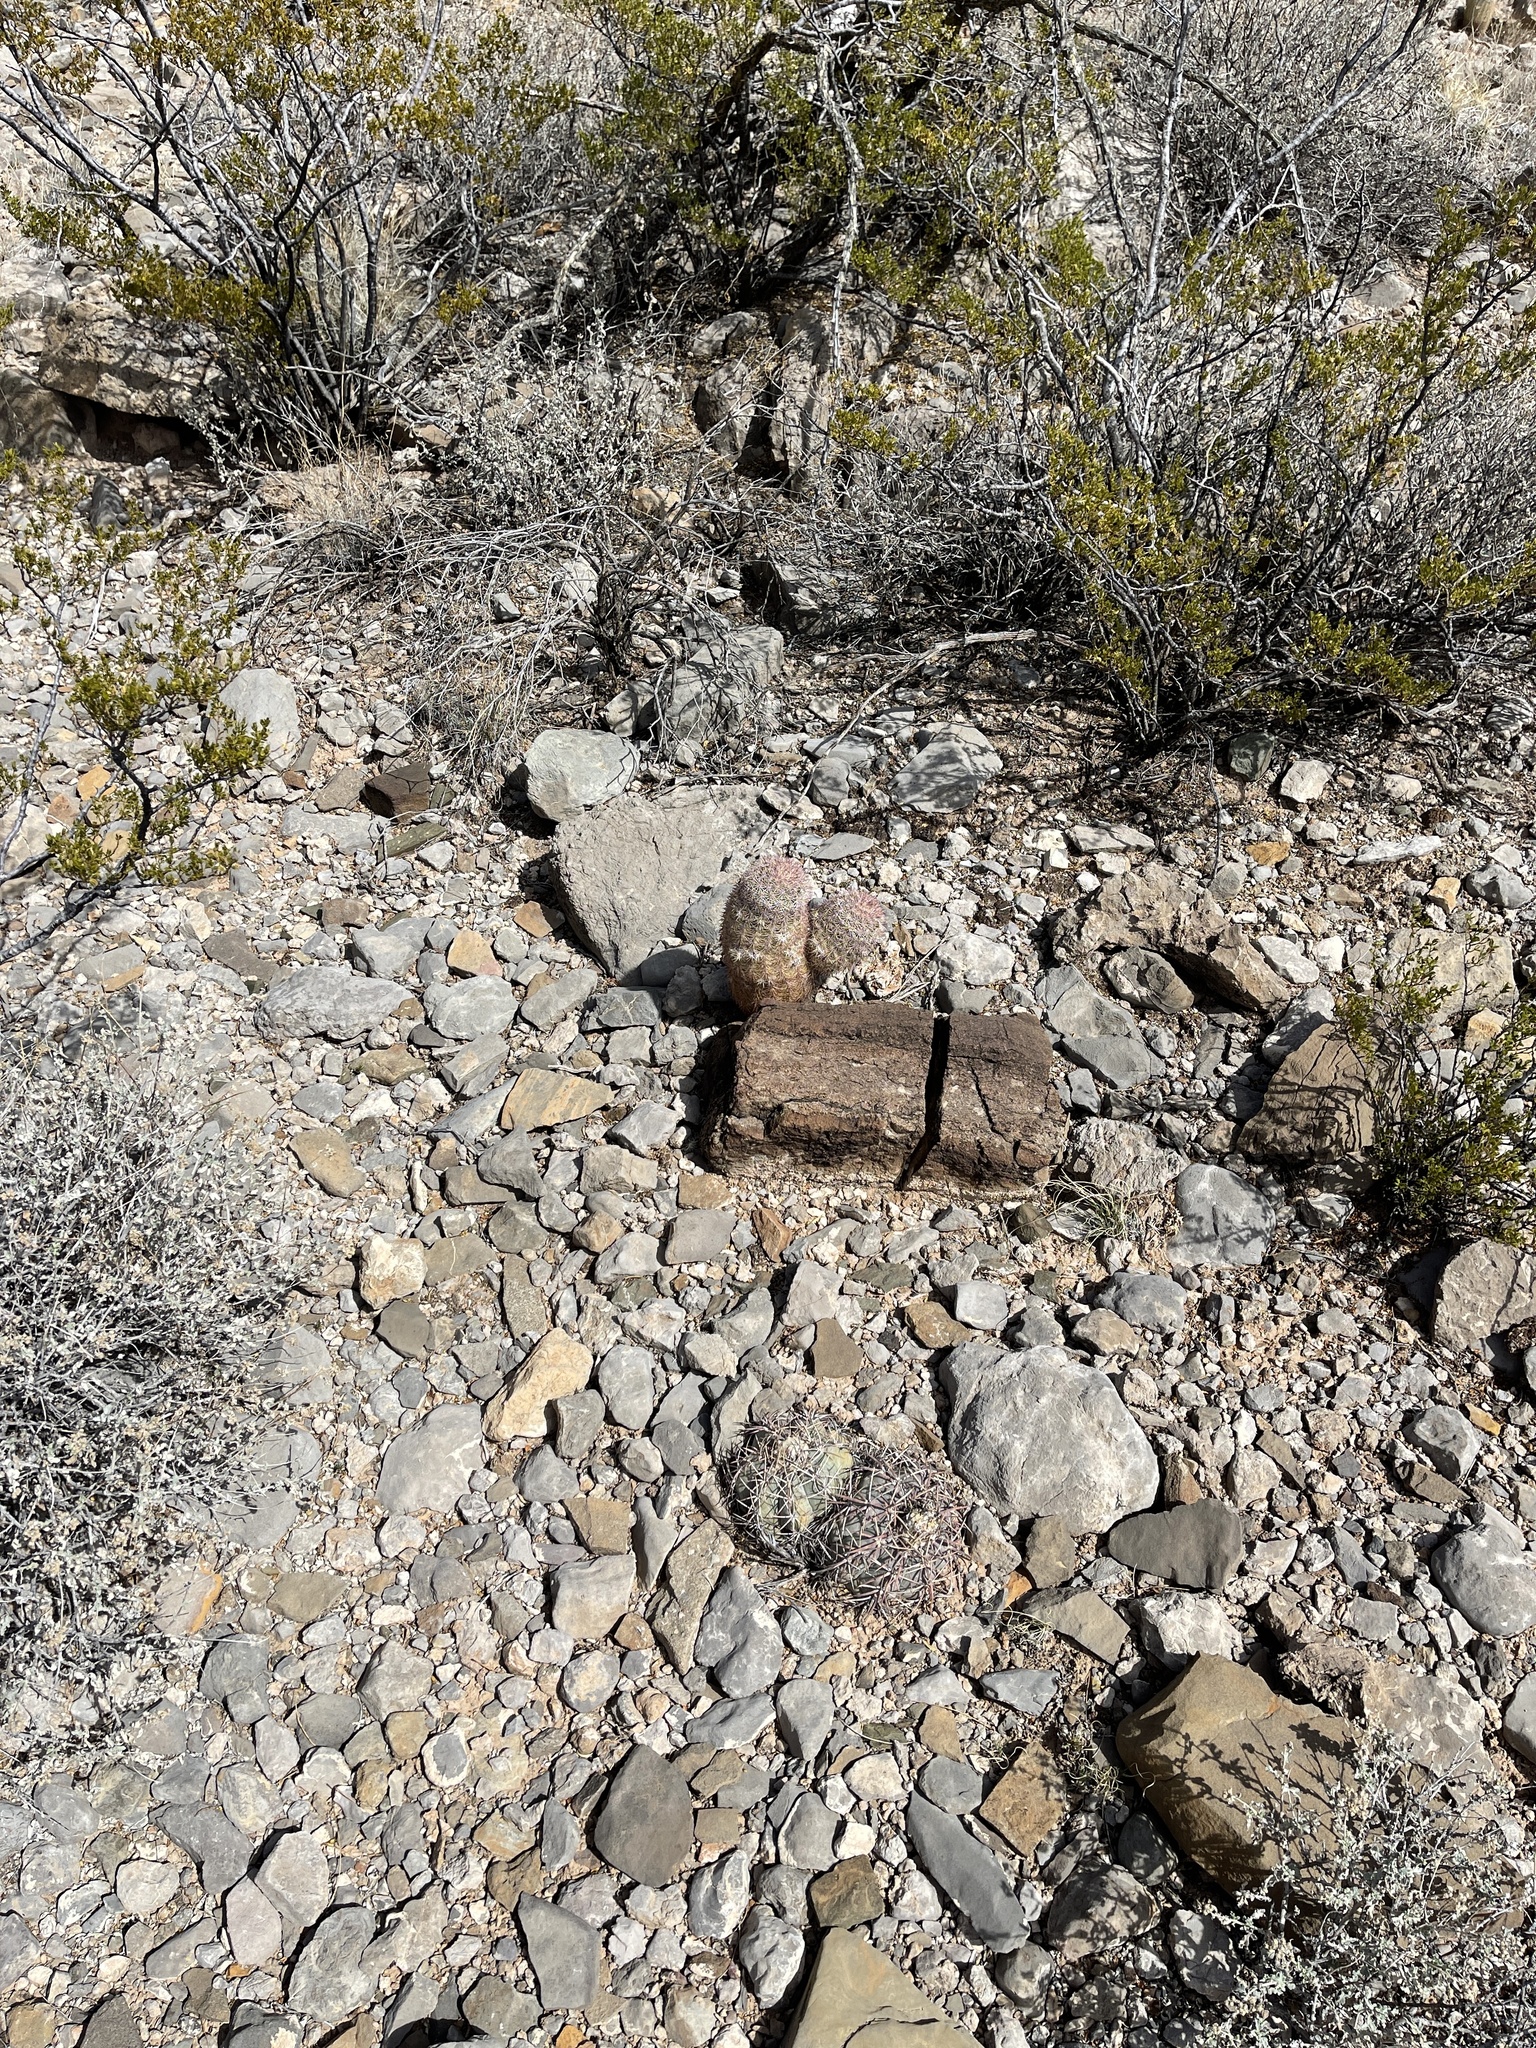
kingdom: Plantae
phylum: Tracheophyta
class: Magnoliopsida
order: Caryophyllales
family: Cactaceae
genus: Echinocactus
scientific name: Echinocactus horizonthalonius
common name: Devilshead
